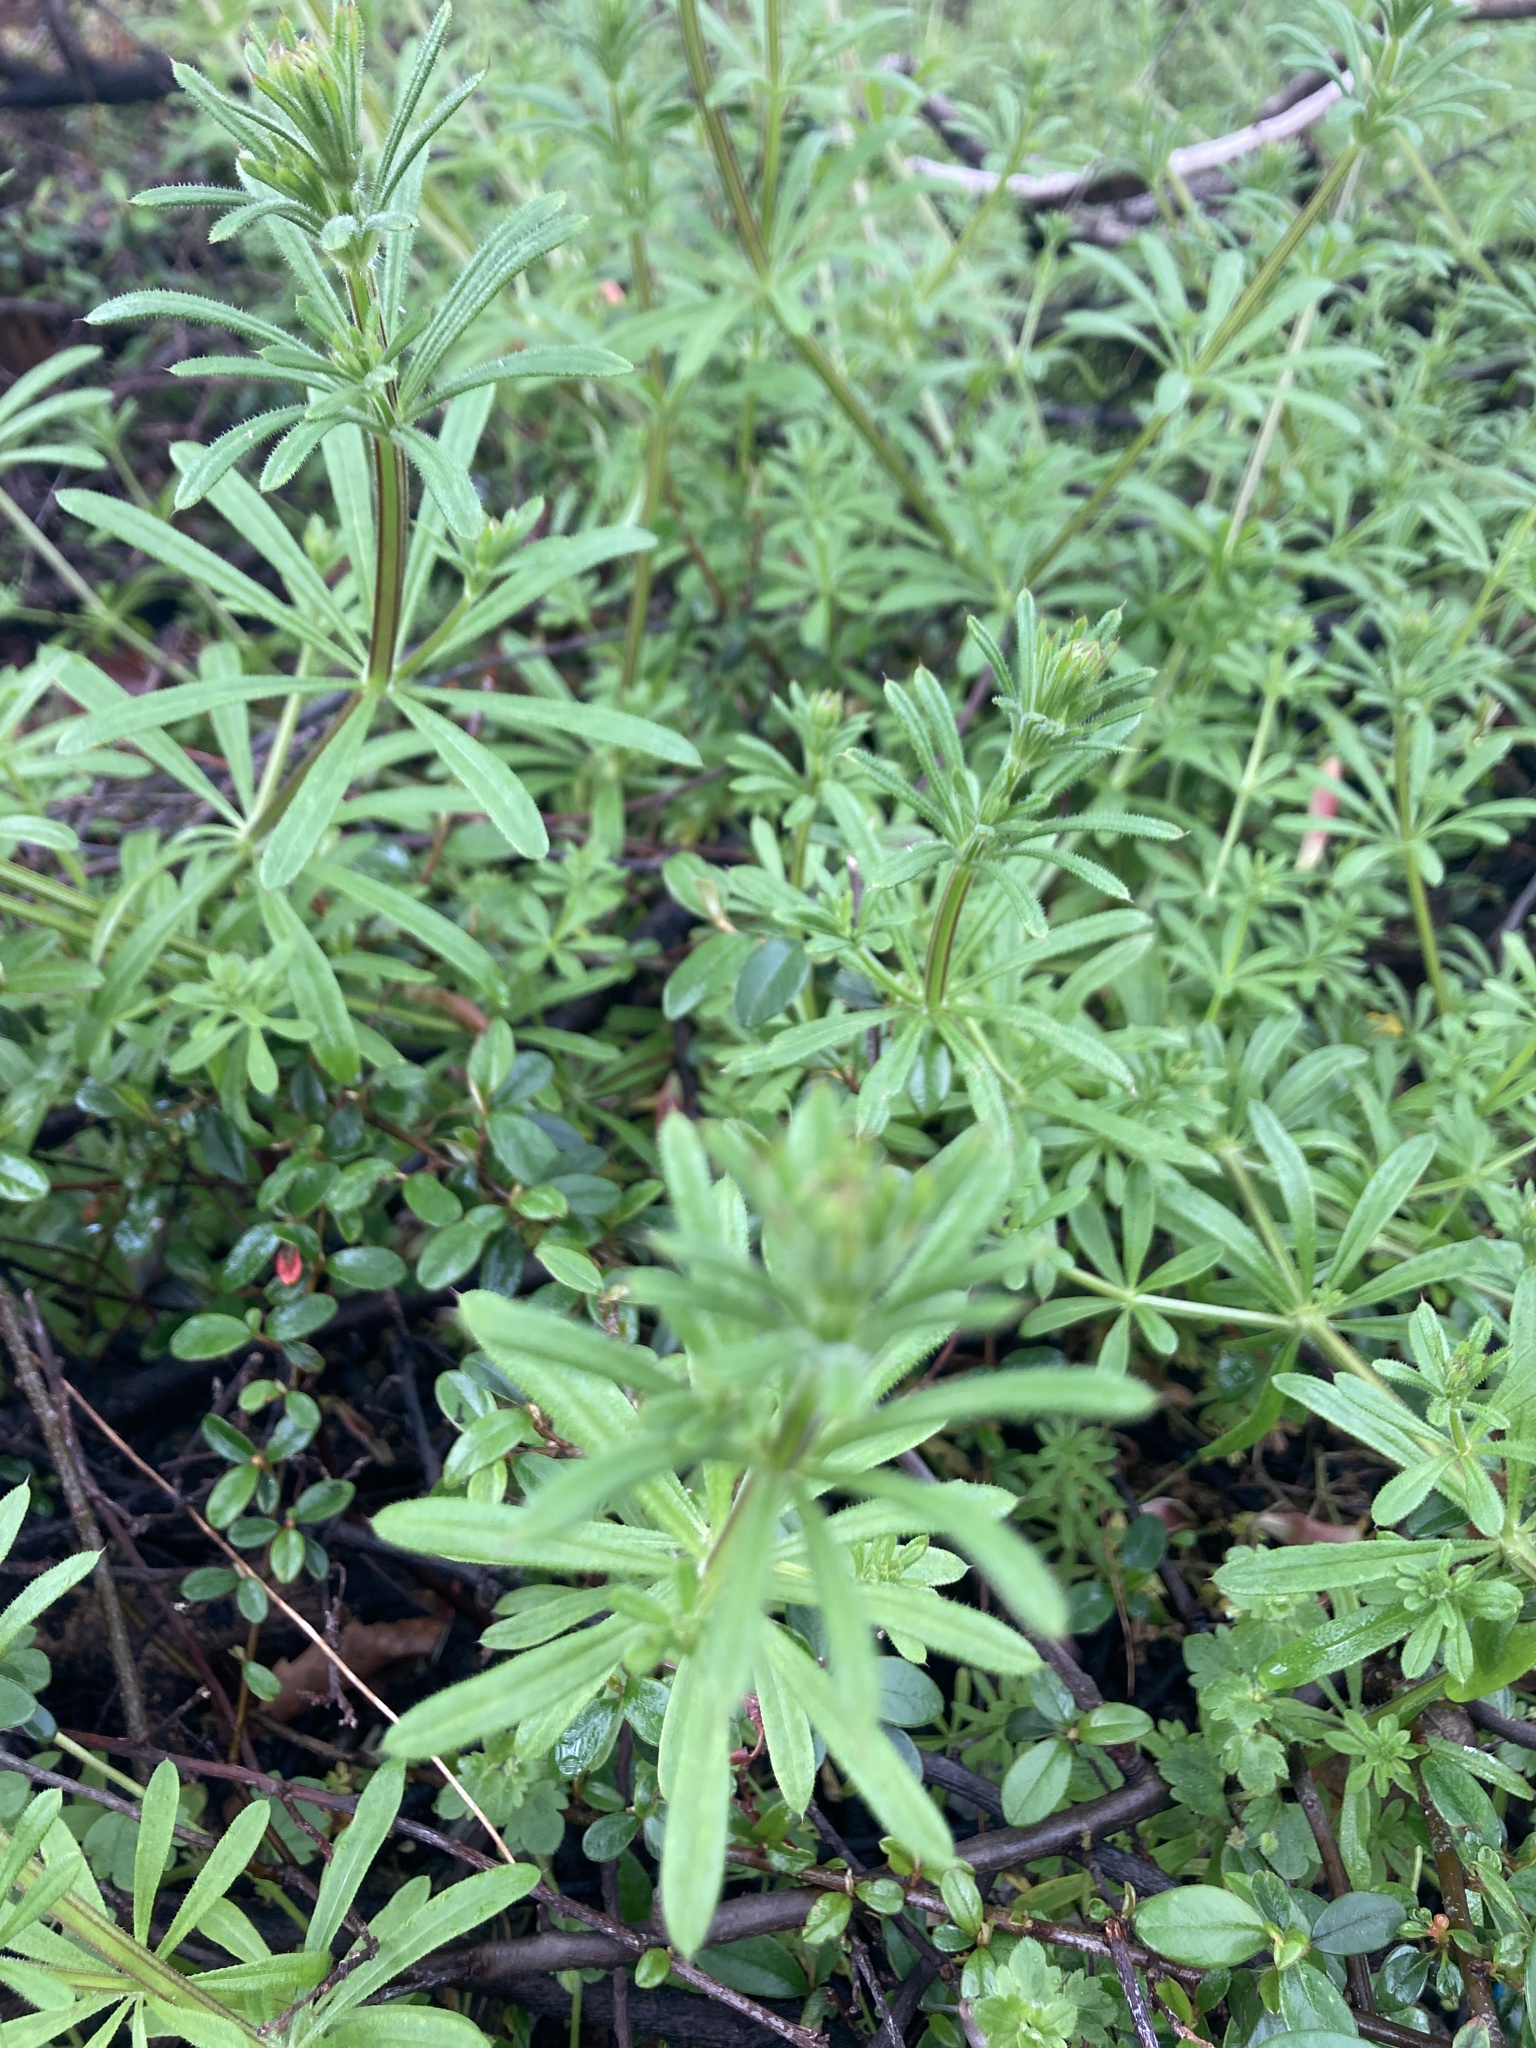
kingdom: Plantae
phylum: Tracheophyta
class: Magnoliopsida
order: Gentianales
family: Rubiaceae
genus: Galium
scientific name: Galium aparine
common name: Cleavers
